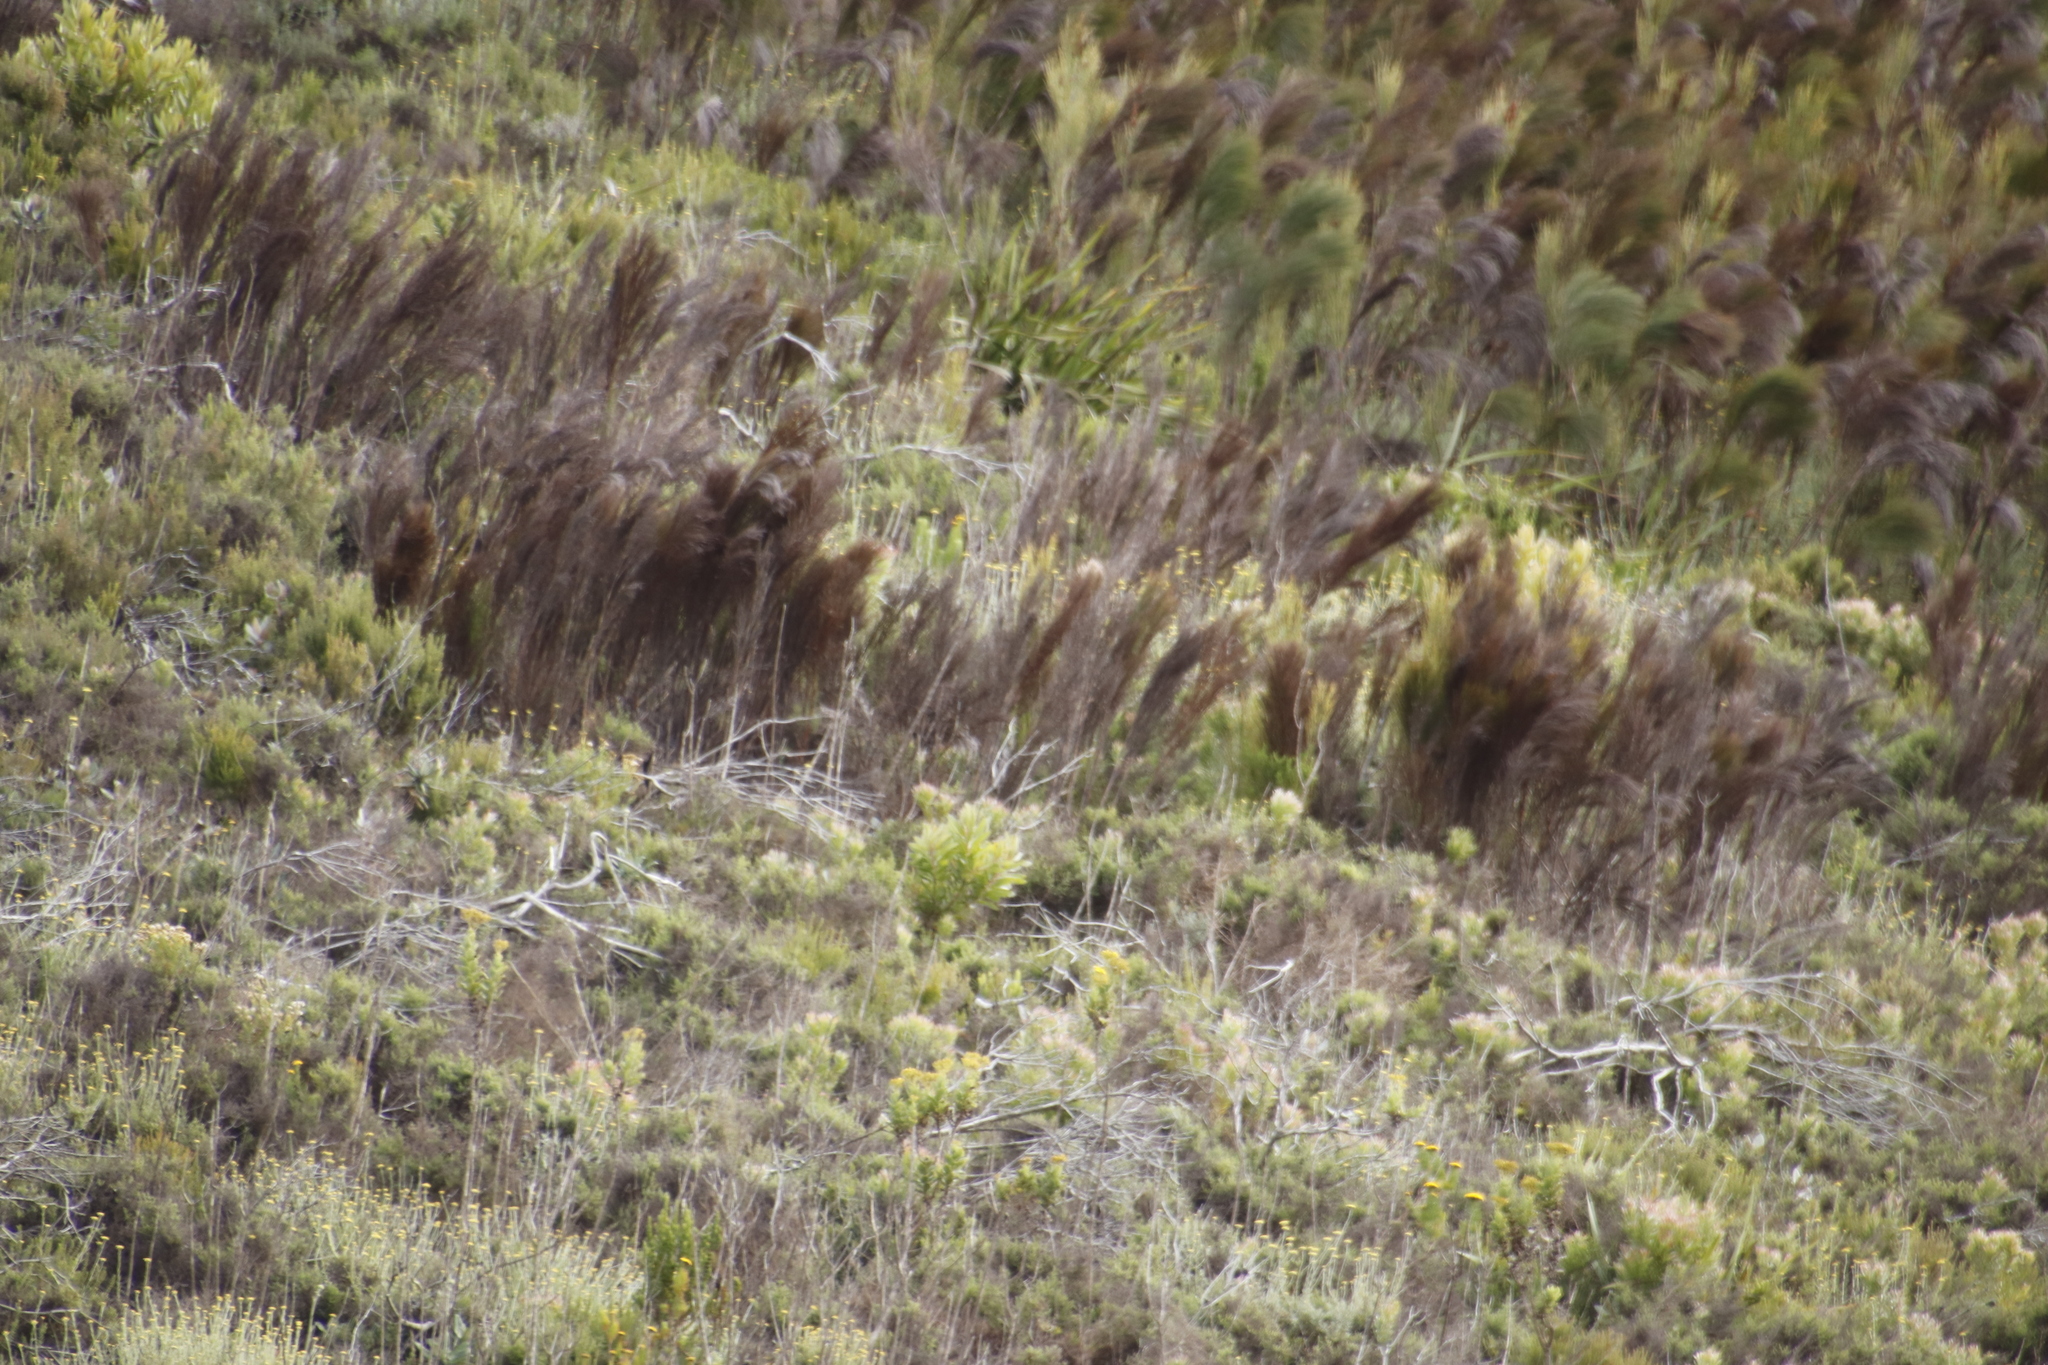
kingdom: Plantae
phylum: Tracheophyta
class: Liliopsida
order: Poales
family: Restionaceae
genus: Cannomois
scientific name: Cannomois virgata
